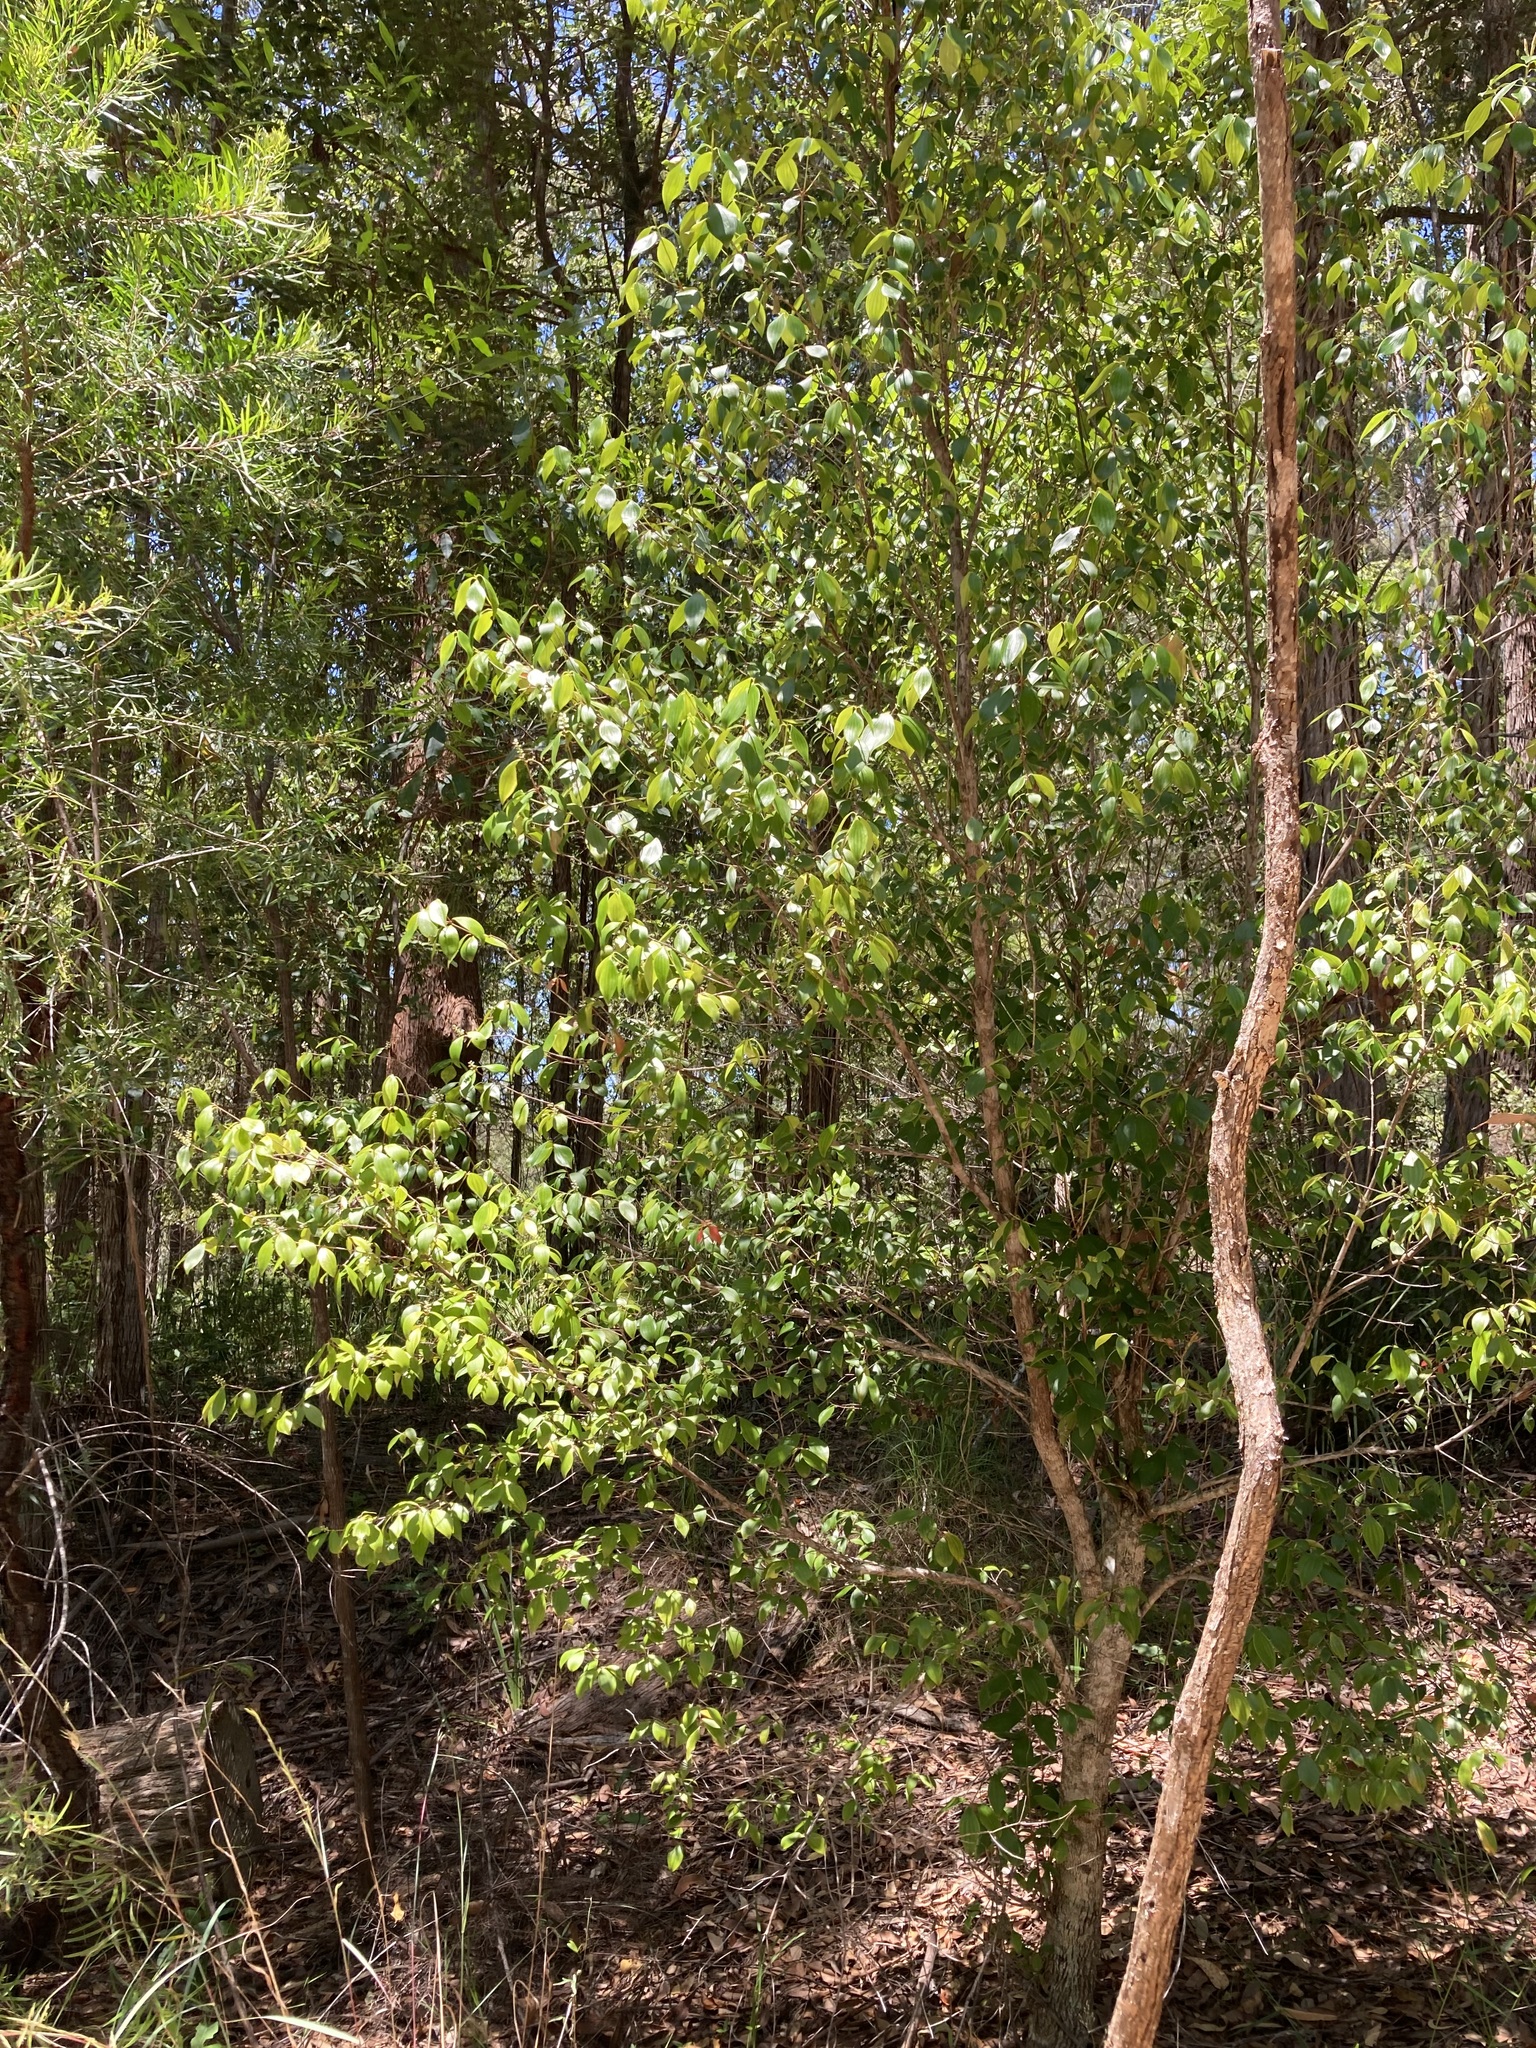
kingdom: Plantae
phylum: Tracheophyta
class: Magnoliopsida
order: Ericales
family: Ericaceae
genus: Trochocarpa
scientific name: Trochocarpa laurina
